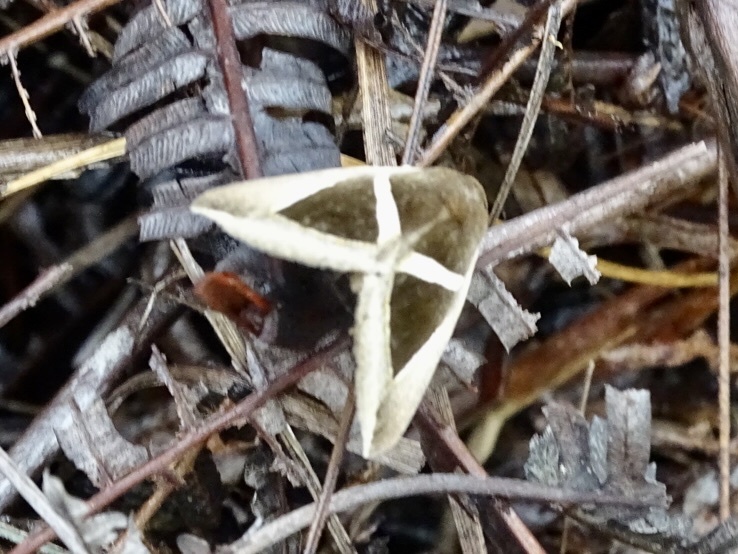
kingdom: Animalia
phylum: Arthropoda
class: Insecta
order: Lepidoptera
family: Erebidae
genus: Chalciope
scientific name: Chalciope mygdon
